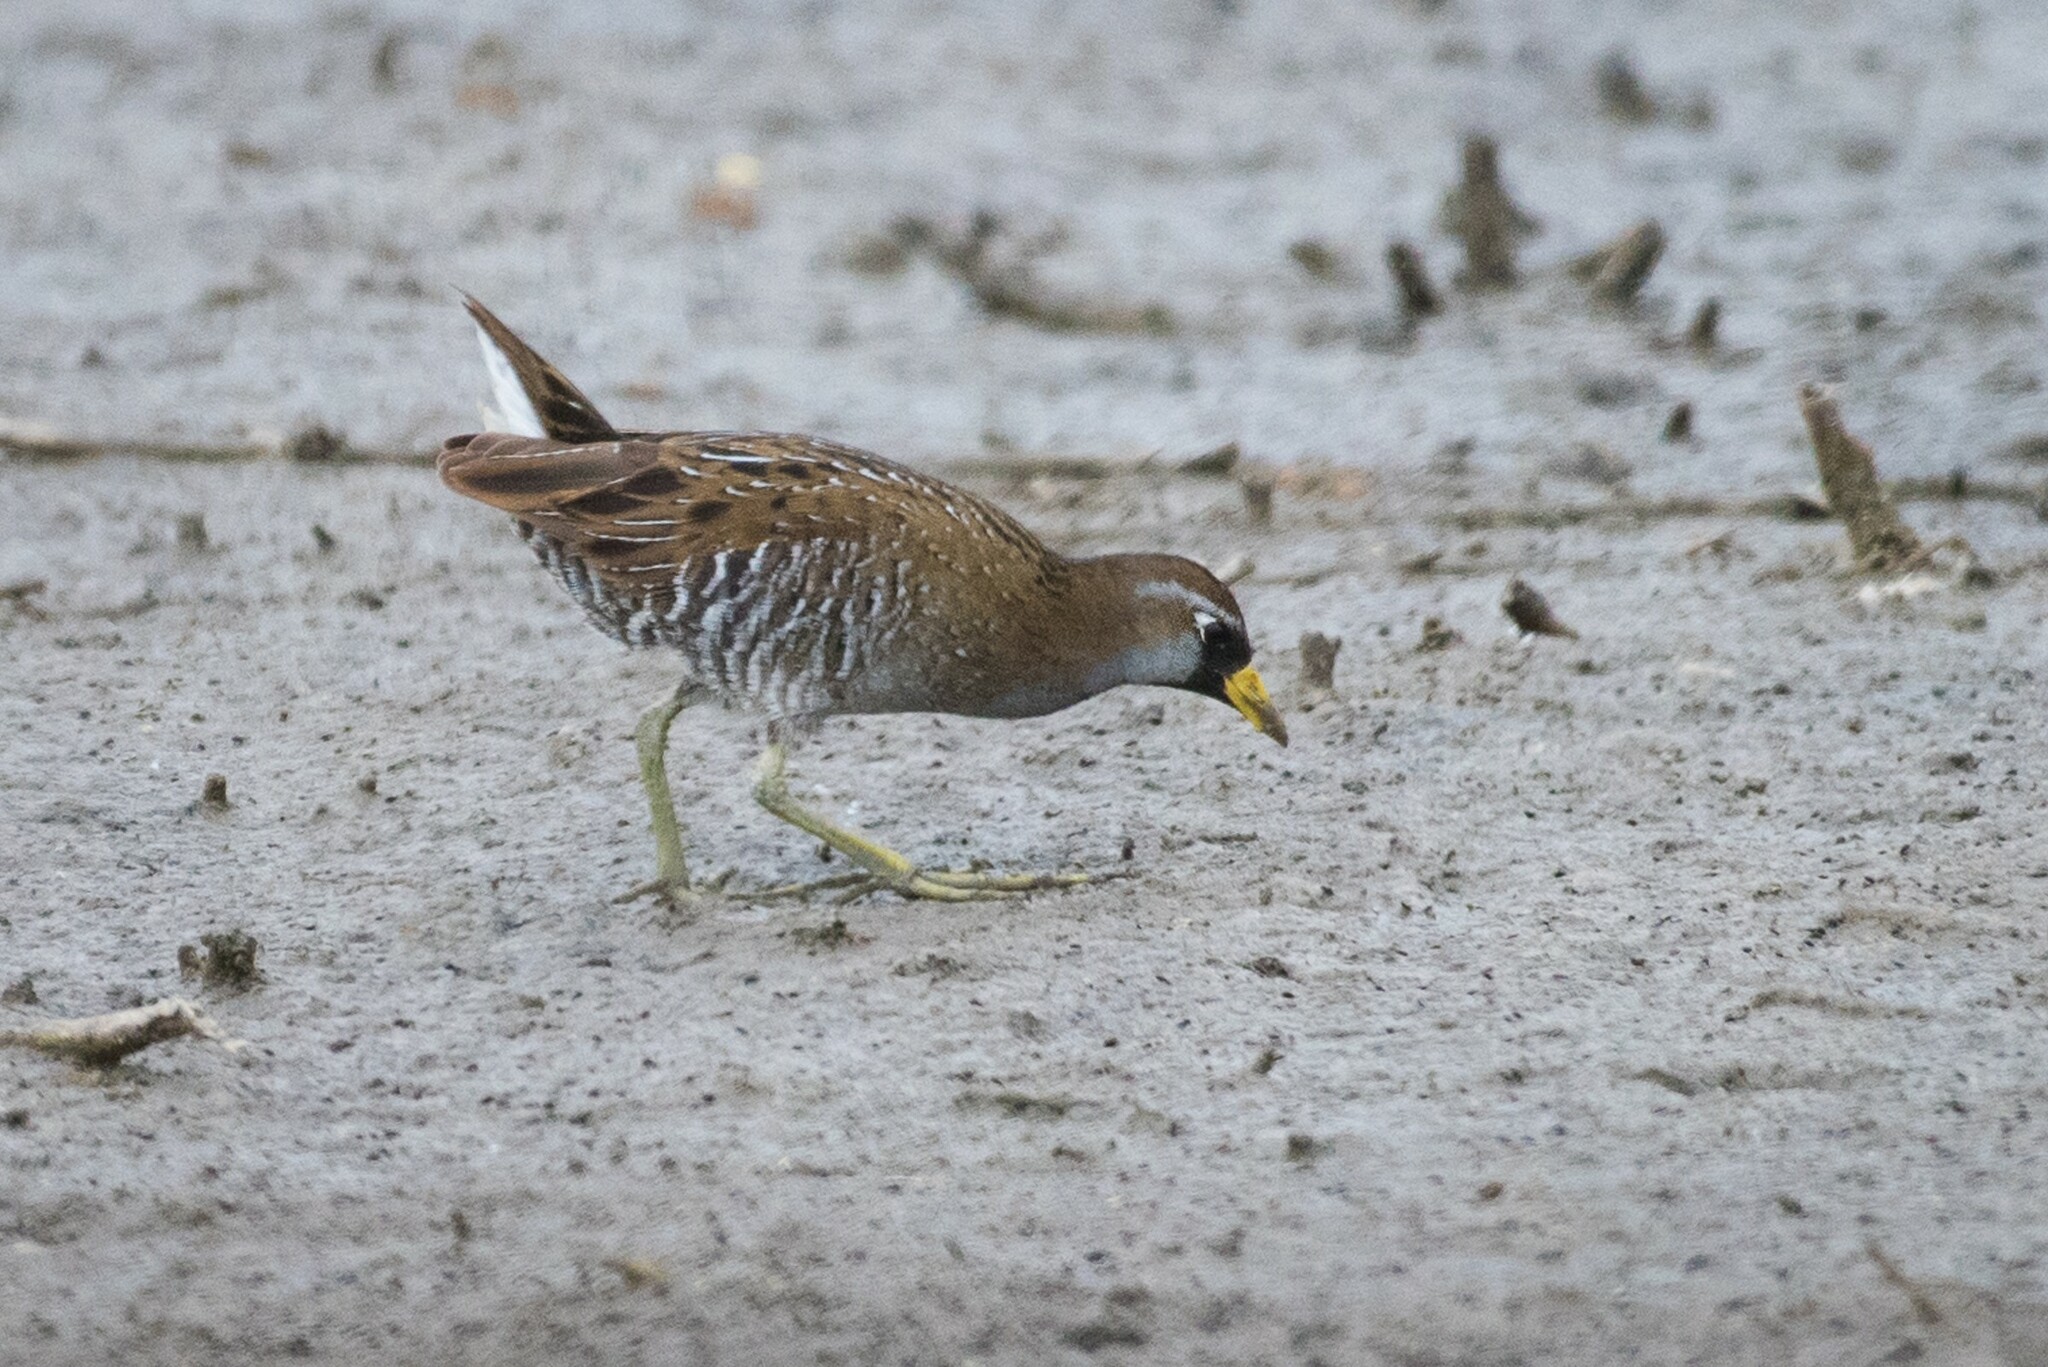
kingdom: Animalia
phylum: Chordata
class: Aves
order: Gruiformes
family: Rallidae
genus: Porzana
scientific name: Porzana carolina
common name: Sora
